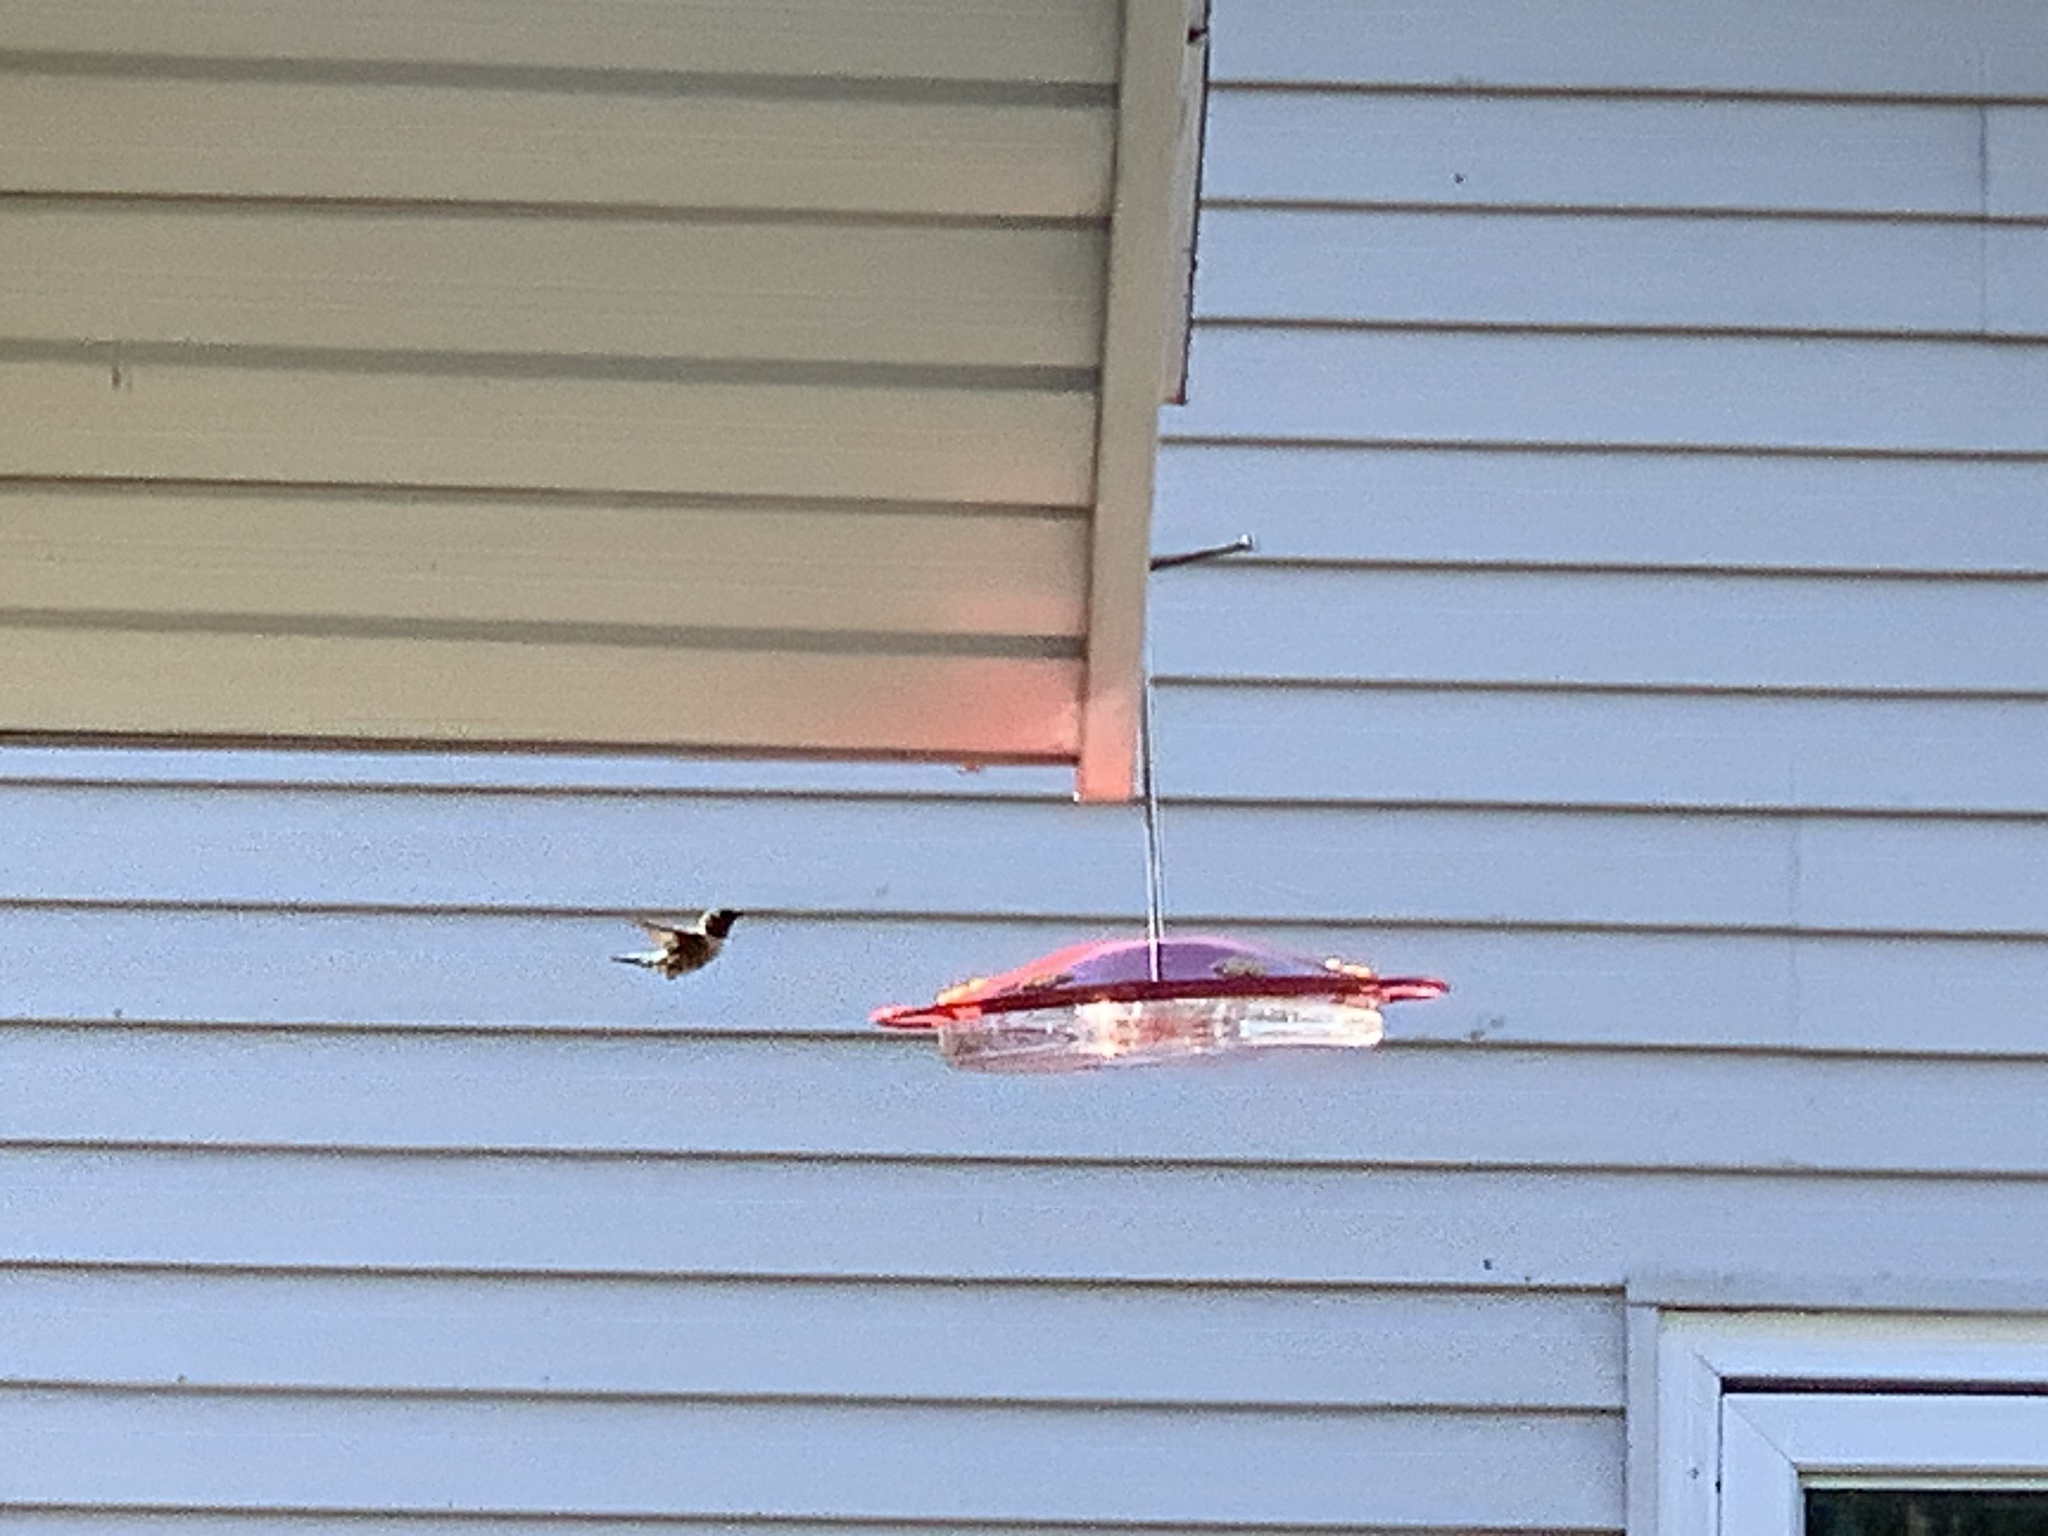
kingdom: Animalia
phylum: Chordata
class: Aves
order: Apodiformes
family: Trochilidae
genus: Archilochus
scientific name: Archilochus colubris
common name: Ruby-throated hummingbird
